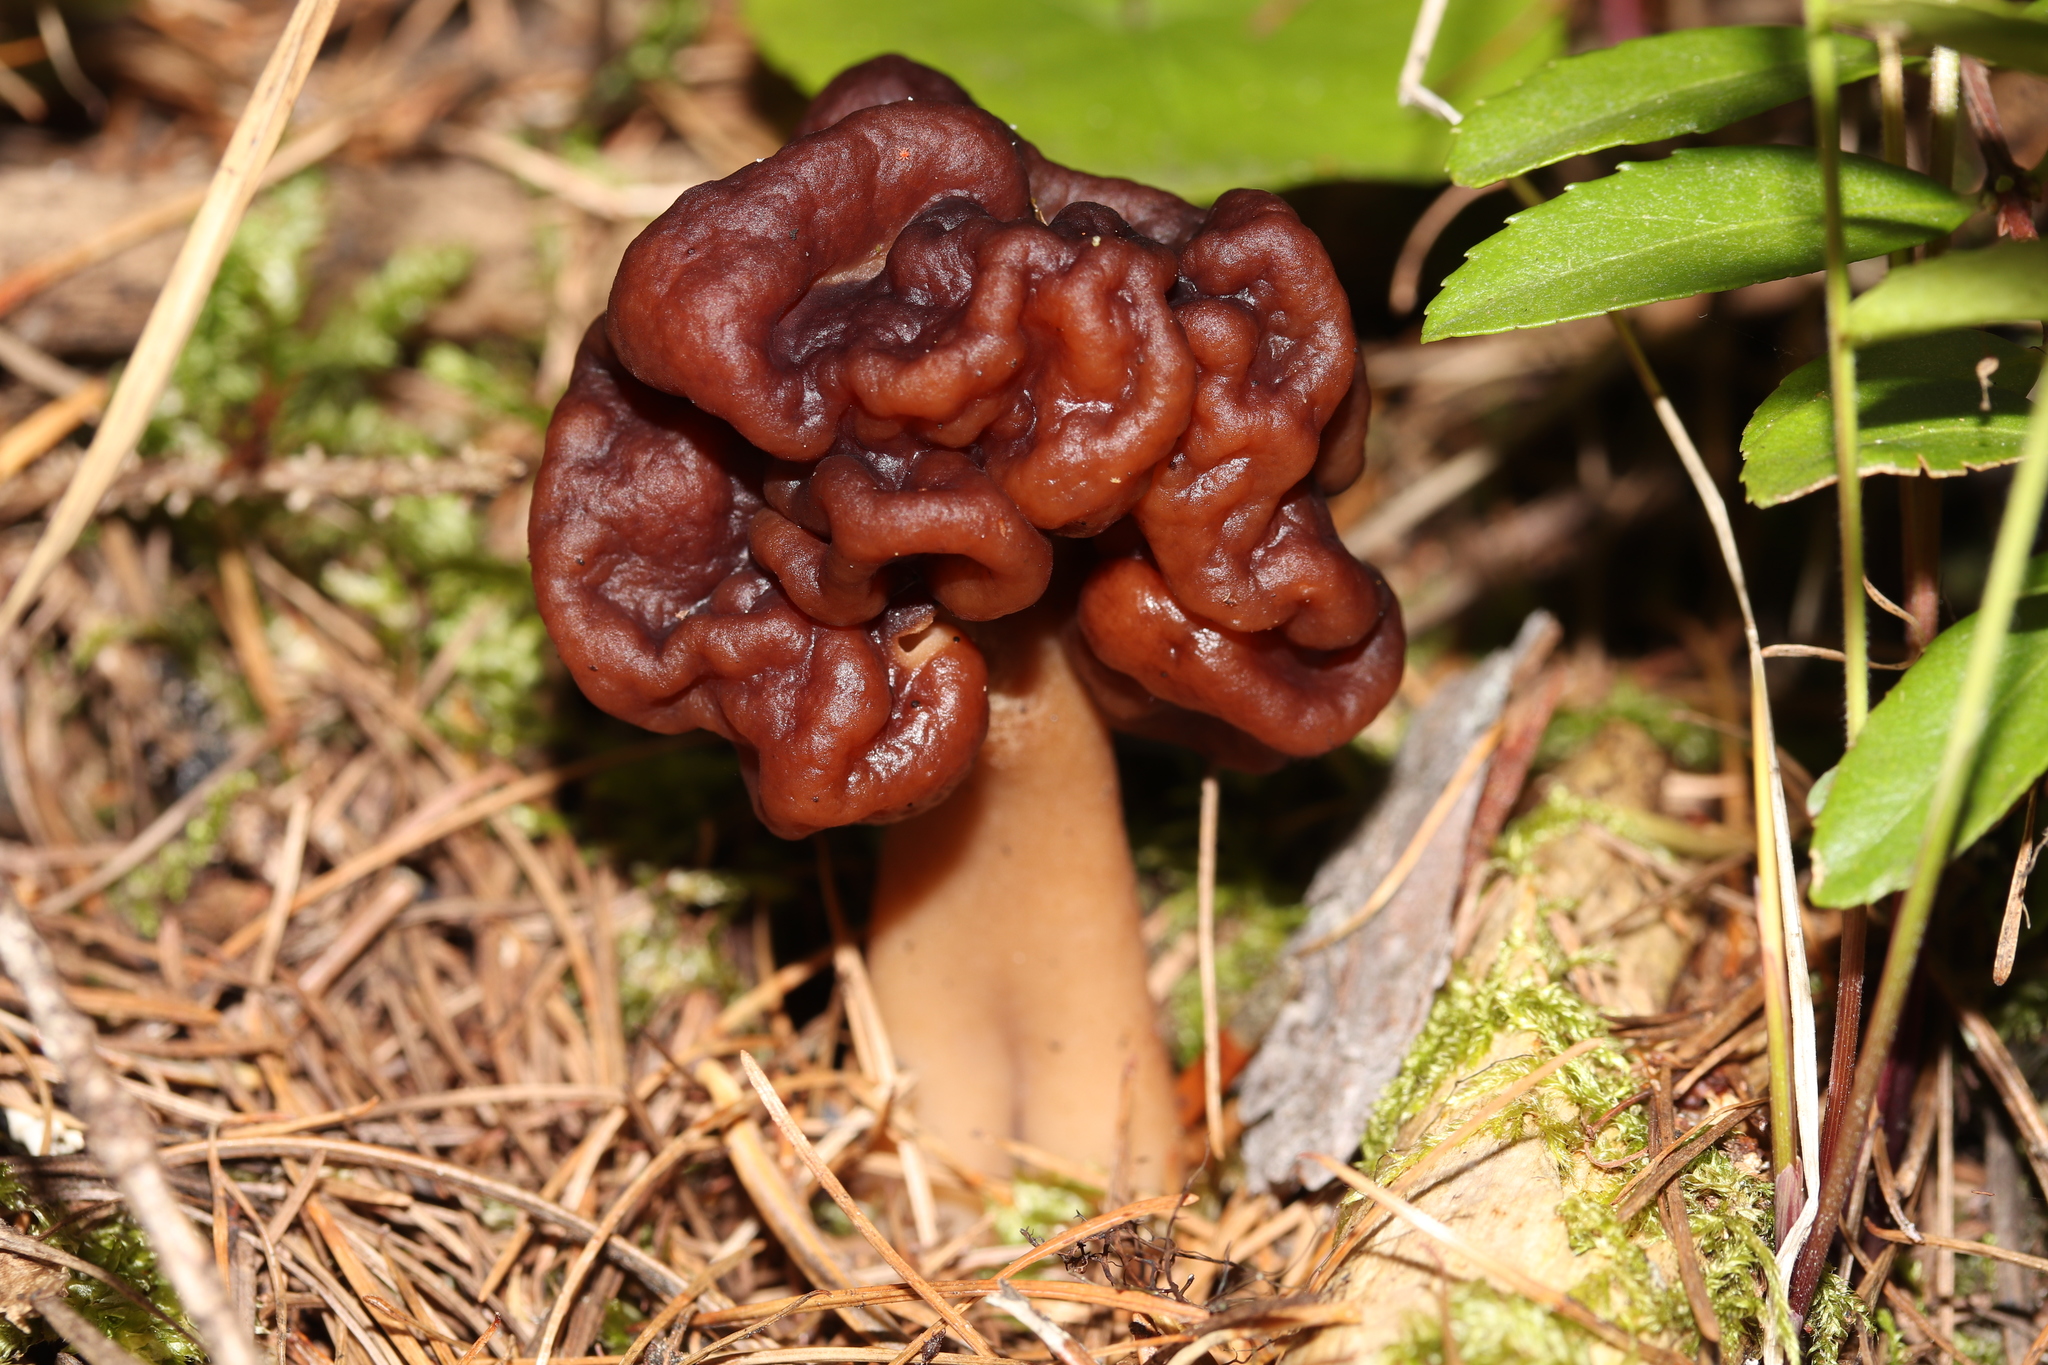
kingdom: Fungi
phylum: Ascomycota
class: Pezizomycetes
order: Pezizales
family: Discinaceae
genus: Gyromitra
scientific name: Gyromitra esculenta
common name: False morel
